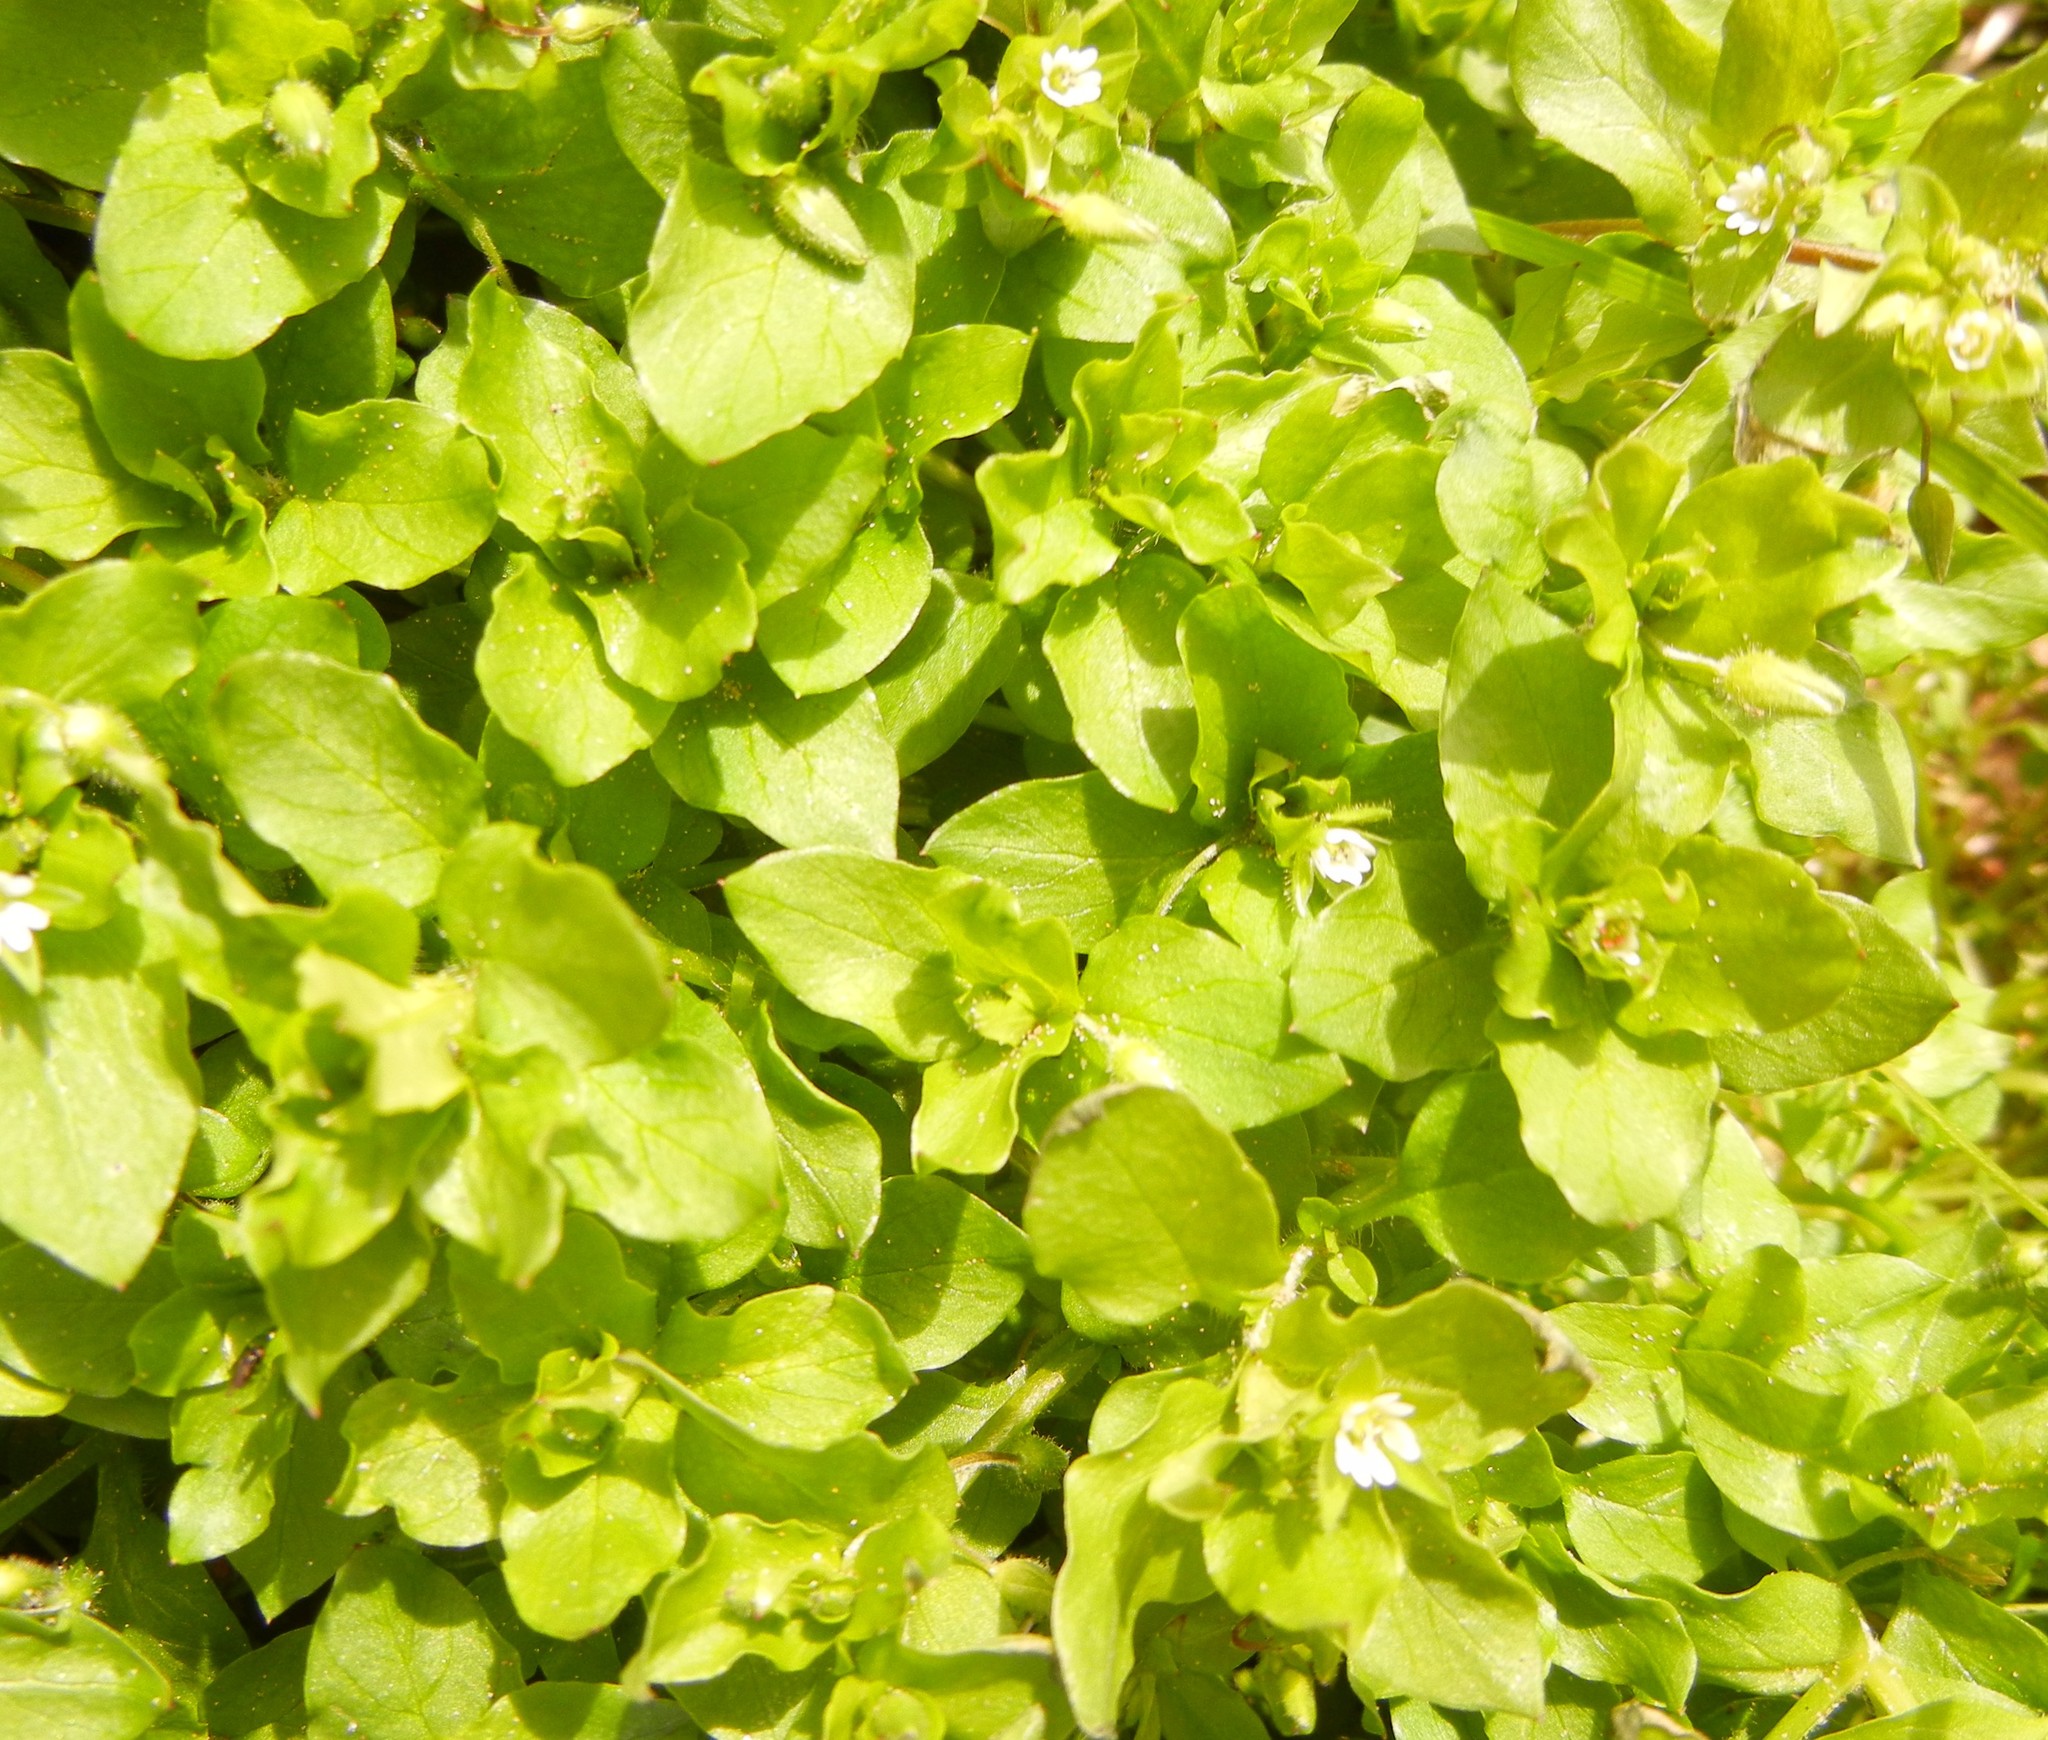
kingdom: Plantae
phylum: Tracheophyta
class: Magnoliopsida
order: Caryophyllales
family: Caryophyllaceae
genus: Stellaria
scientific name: Stellaria media
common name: Common chickweed
